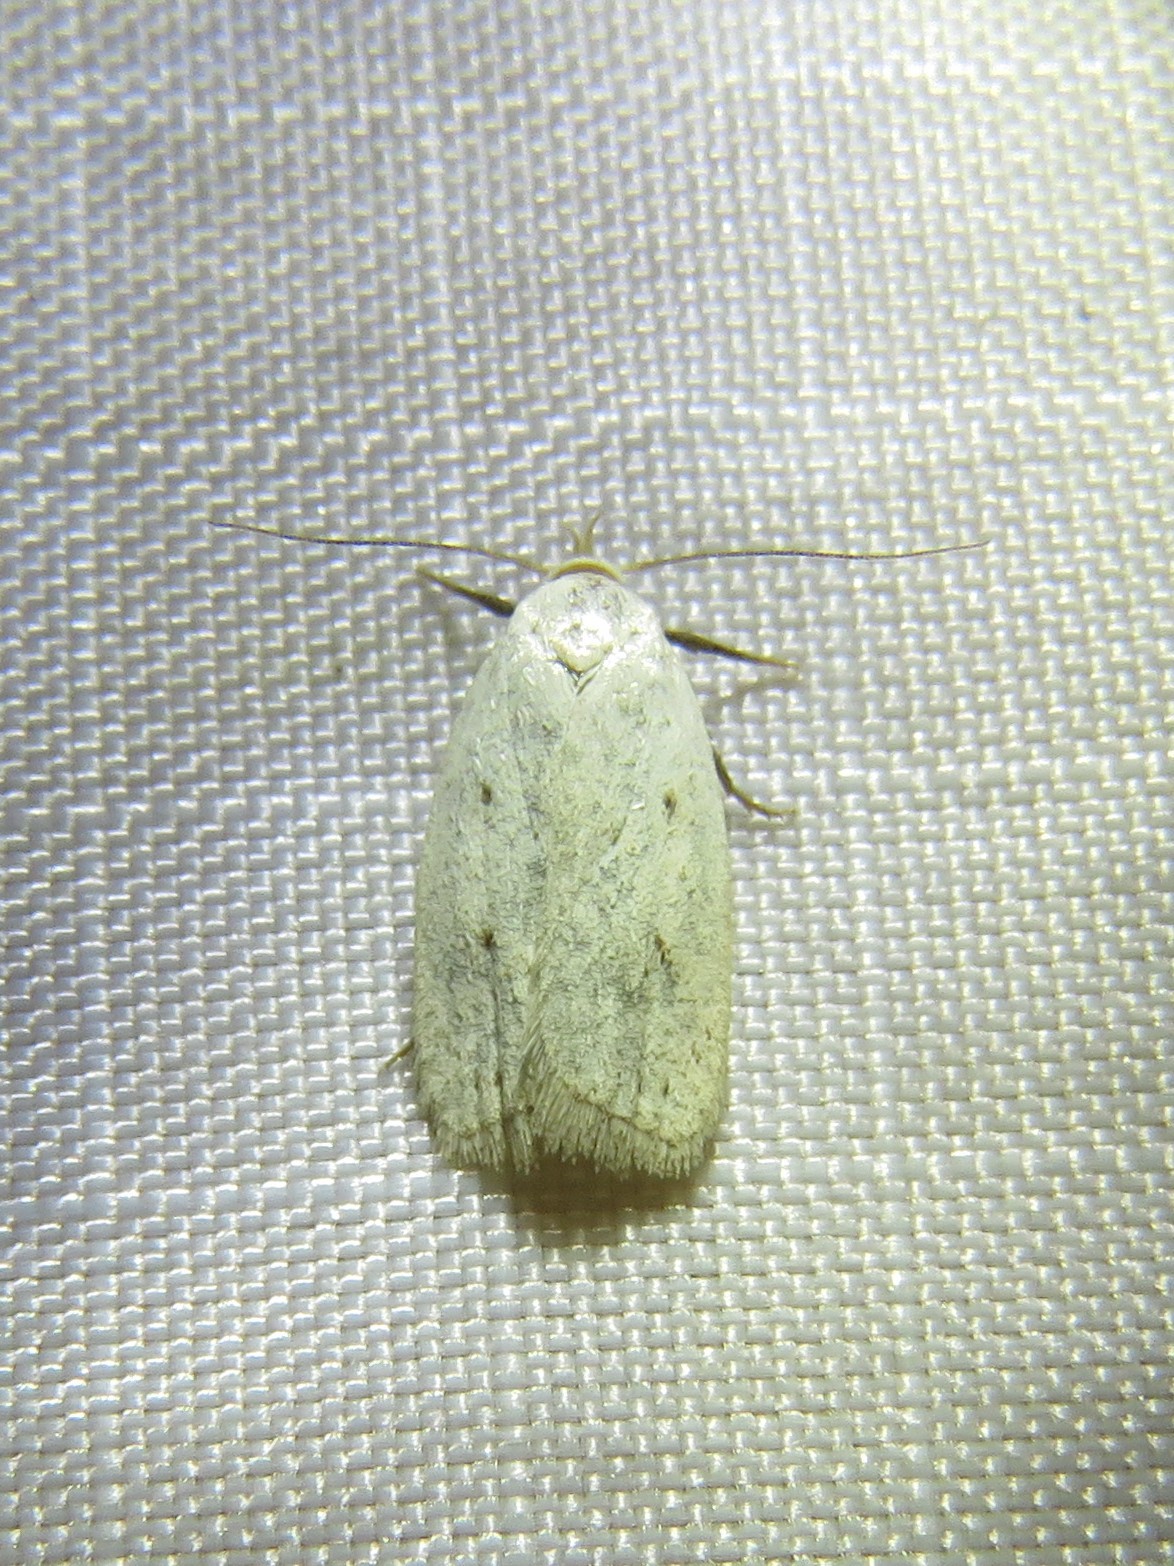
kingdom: Animalia
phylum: Arthropoda
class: Insecta
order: Lepidoptera
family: Oecophoridae
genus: Inga
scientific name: Inga cretacea
